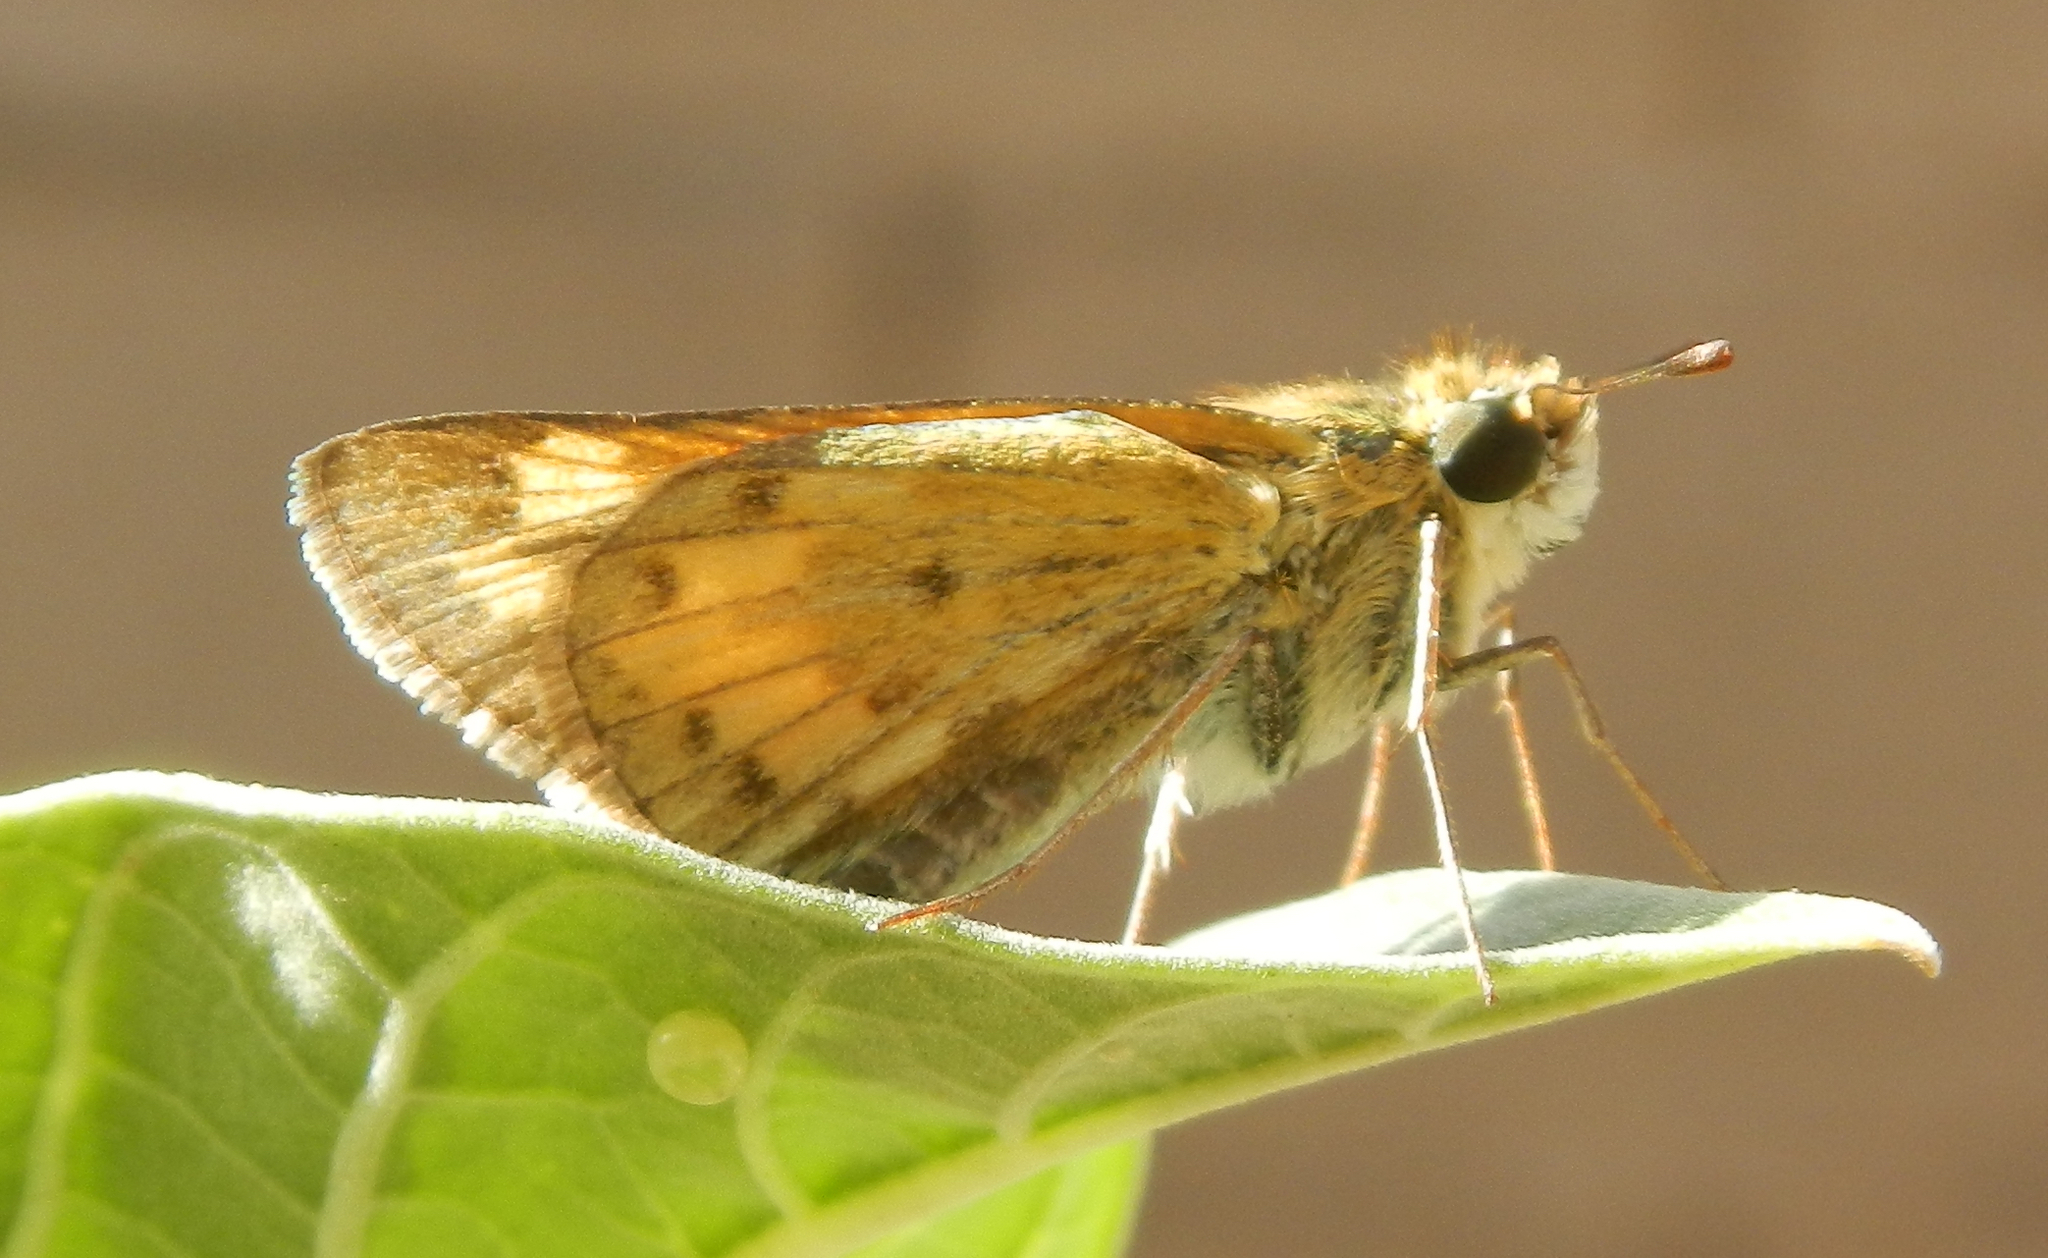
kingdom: Animalia
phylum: Arthropoda
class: Insecta
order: Lepidoptera
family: Hesperiidae
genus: Hylephila
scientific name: Hylephila phyleus
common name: Fiery skipper
